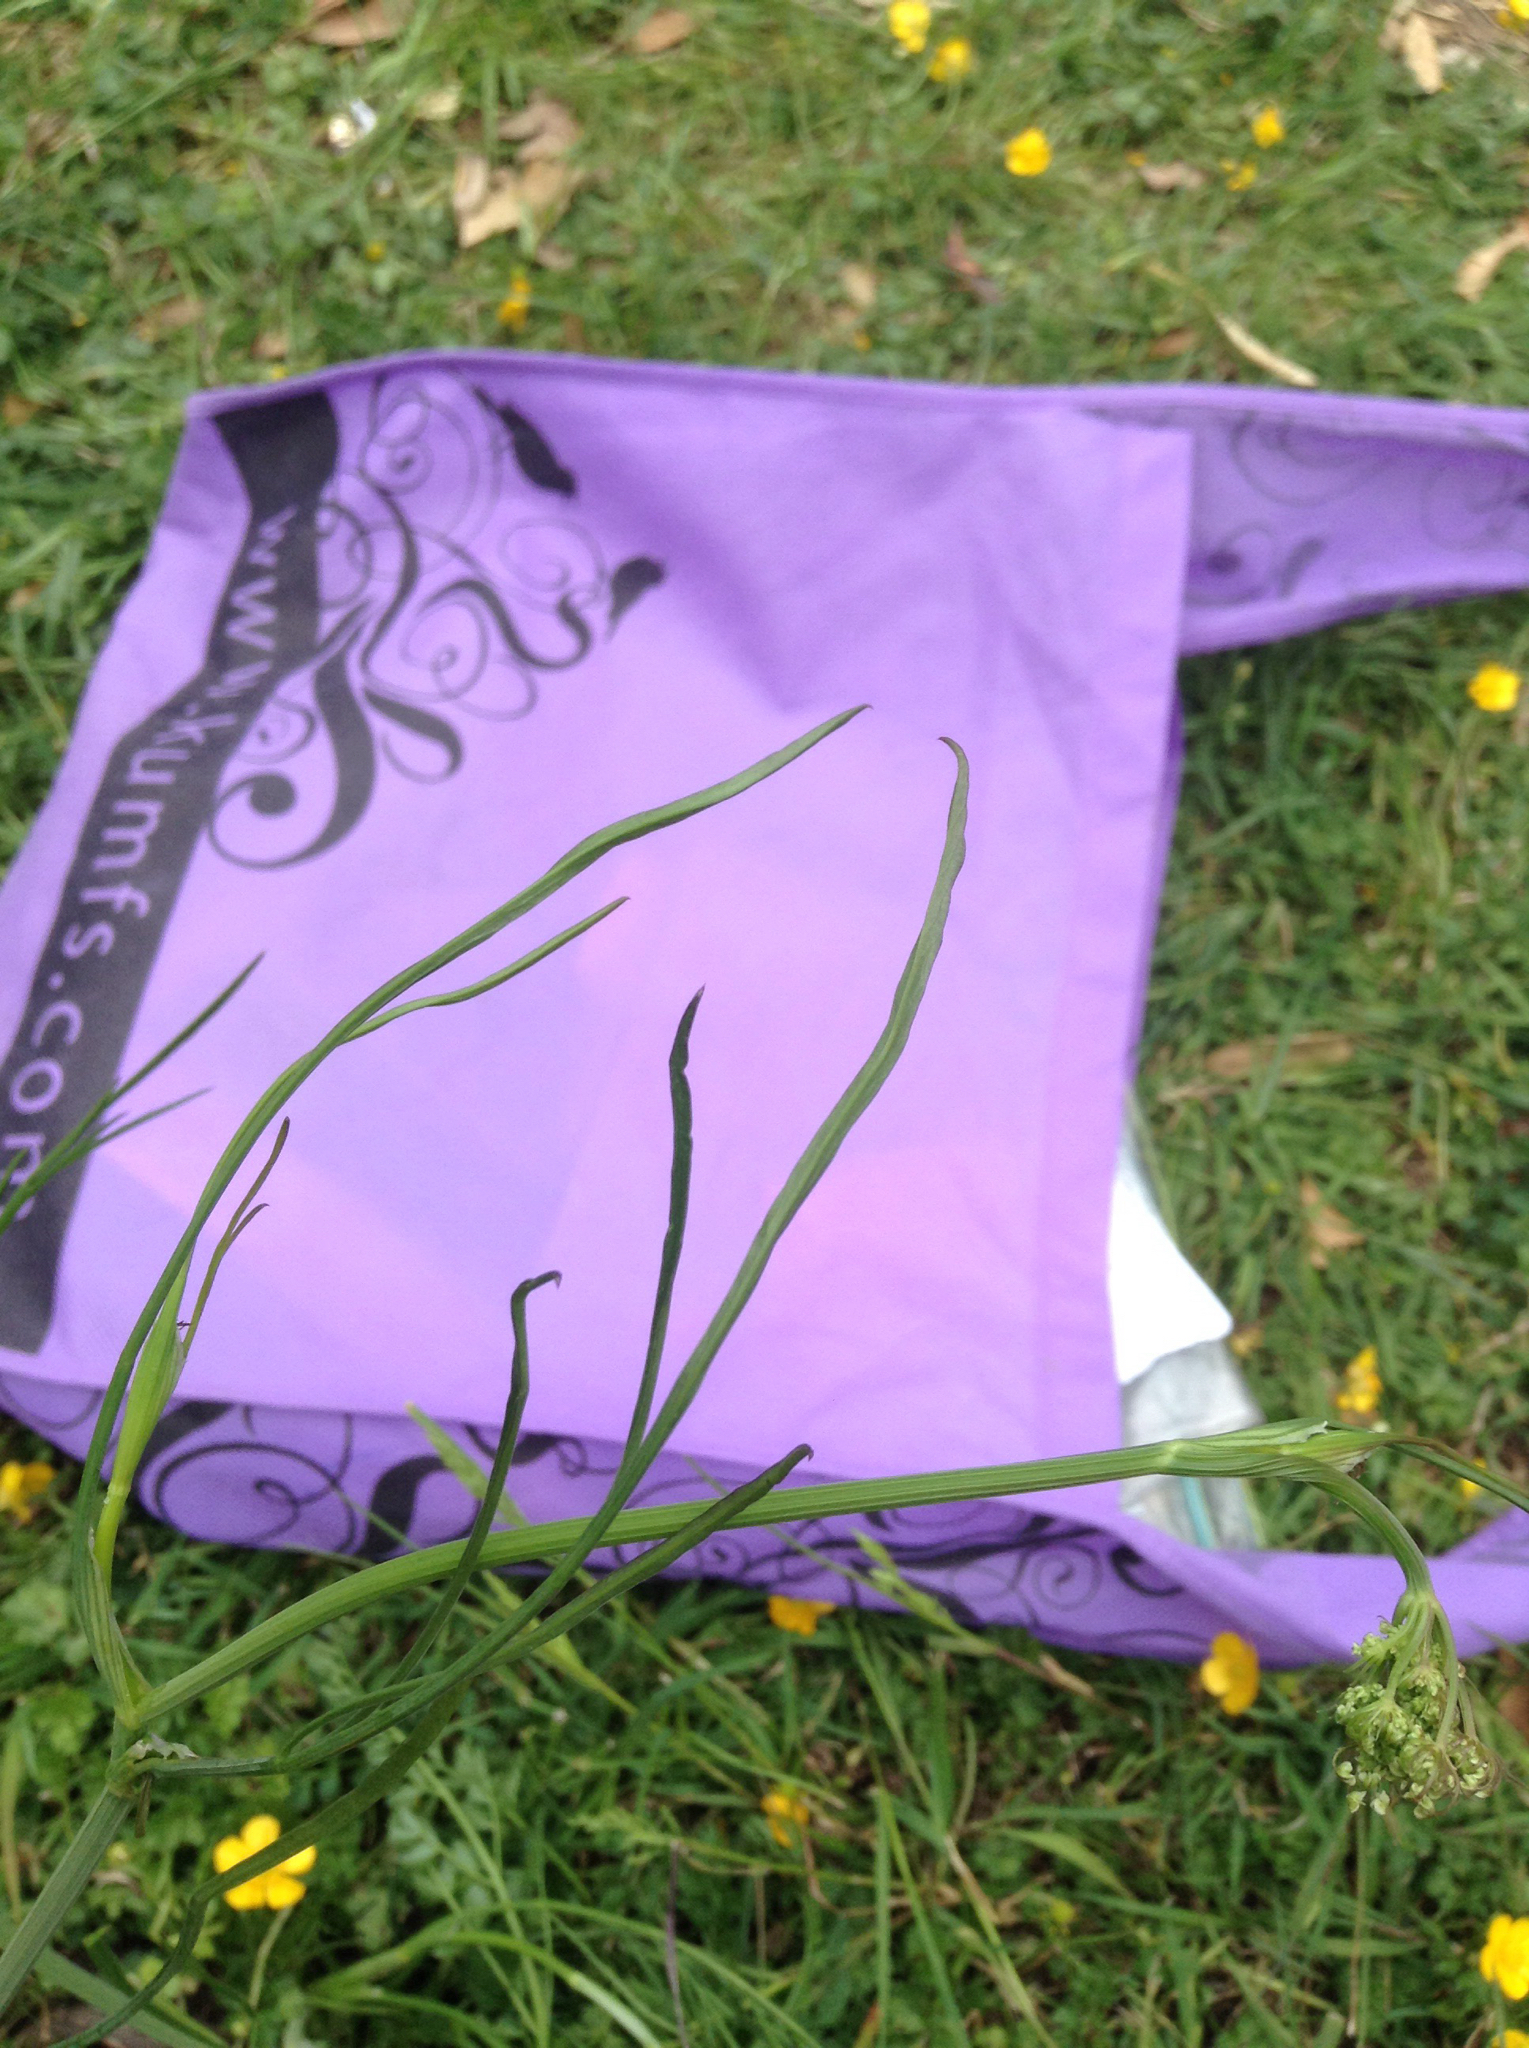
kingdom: Plantae
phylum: Tracheophyta
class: Magnoliopsida
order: Apiales
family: Apiaceae
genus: Oenanthe
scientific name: Oenanthe pimpinelloides
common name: Corky-fruited water-dropwort
